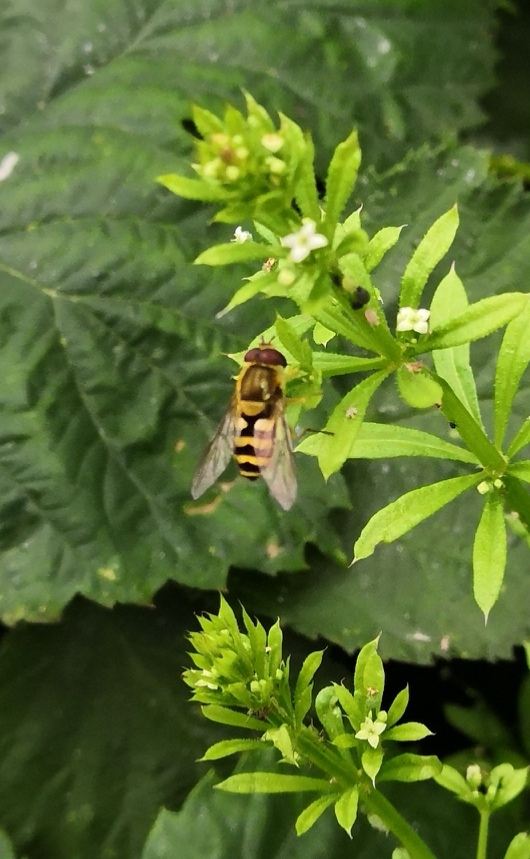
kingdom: Animalia
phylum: Arthropoda
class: Insecta
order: Diptera
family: Syrphidae
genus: Syrphus
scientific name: Syrphus
